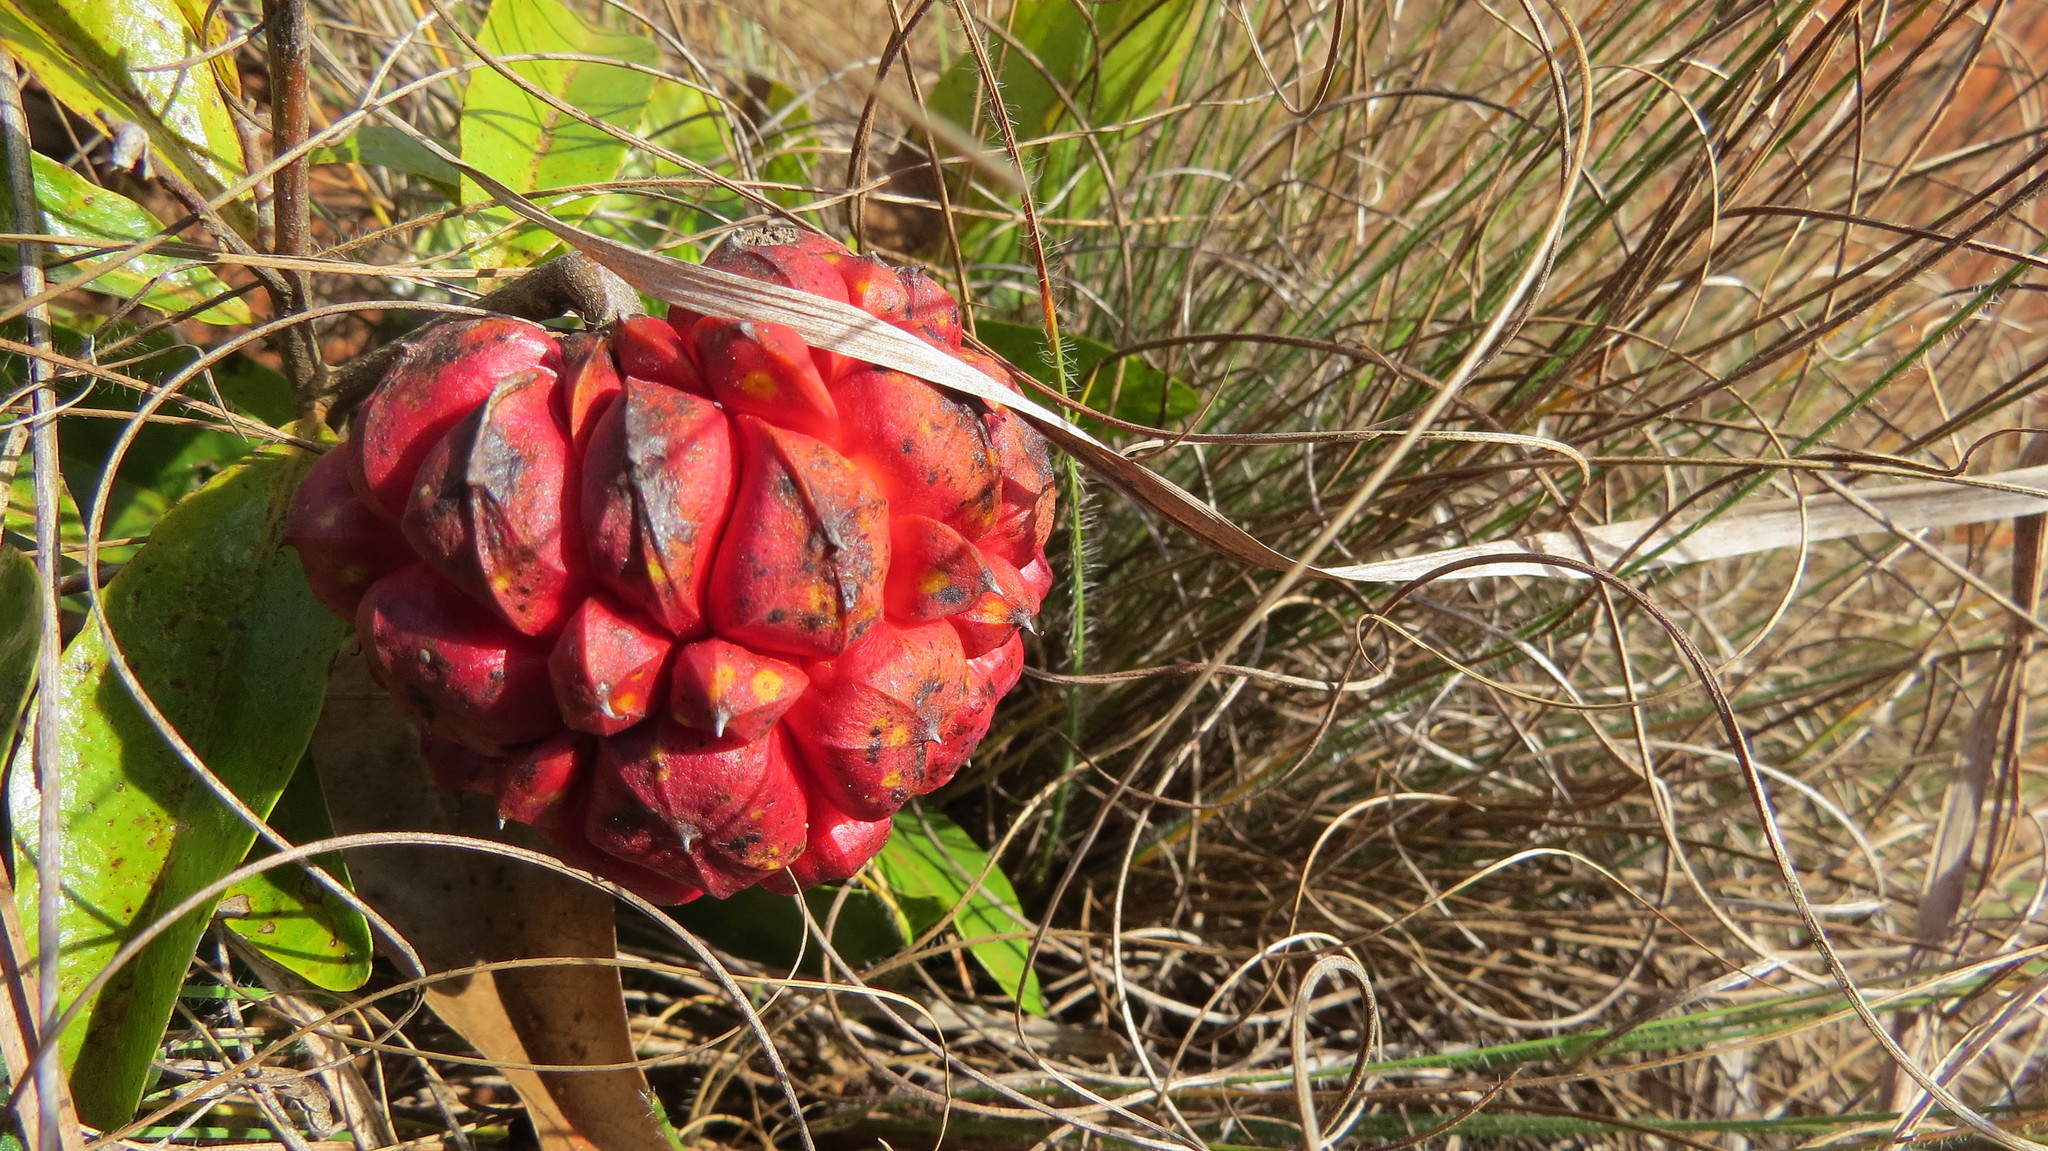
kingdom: Plantae
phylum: Tracheophyta
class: Magnoliopsida
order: Magnoliales
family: Annonaceae
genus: Duguetia
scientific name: Duguetia lanceolata
